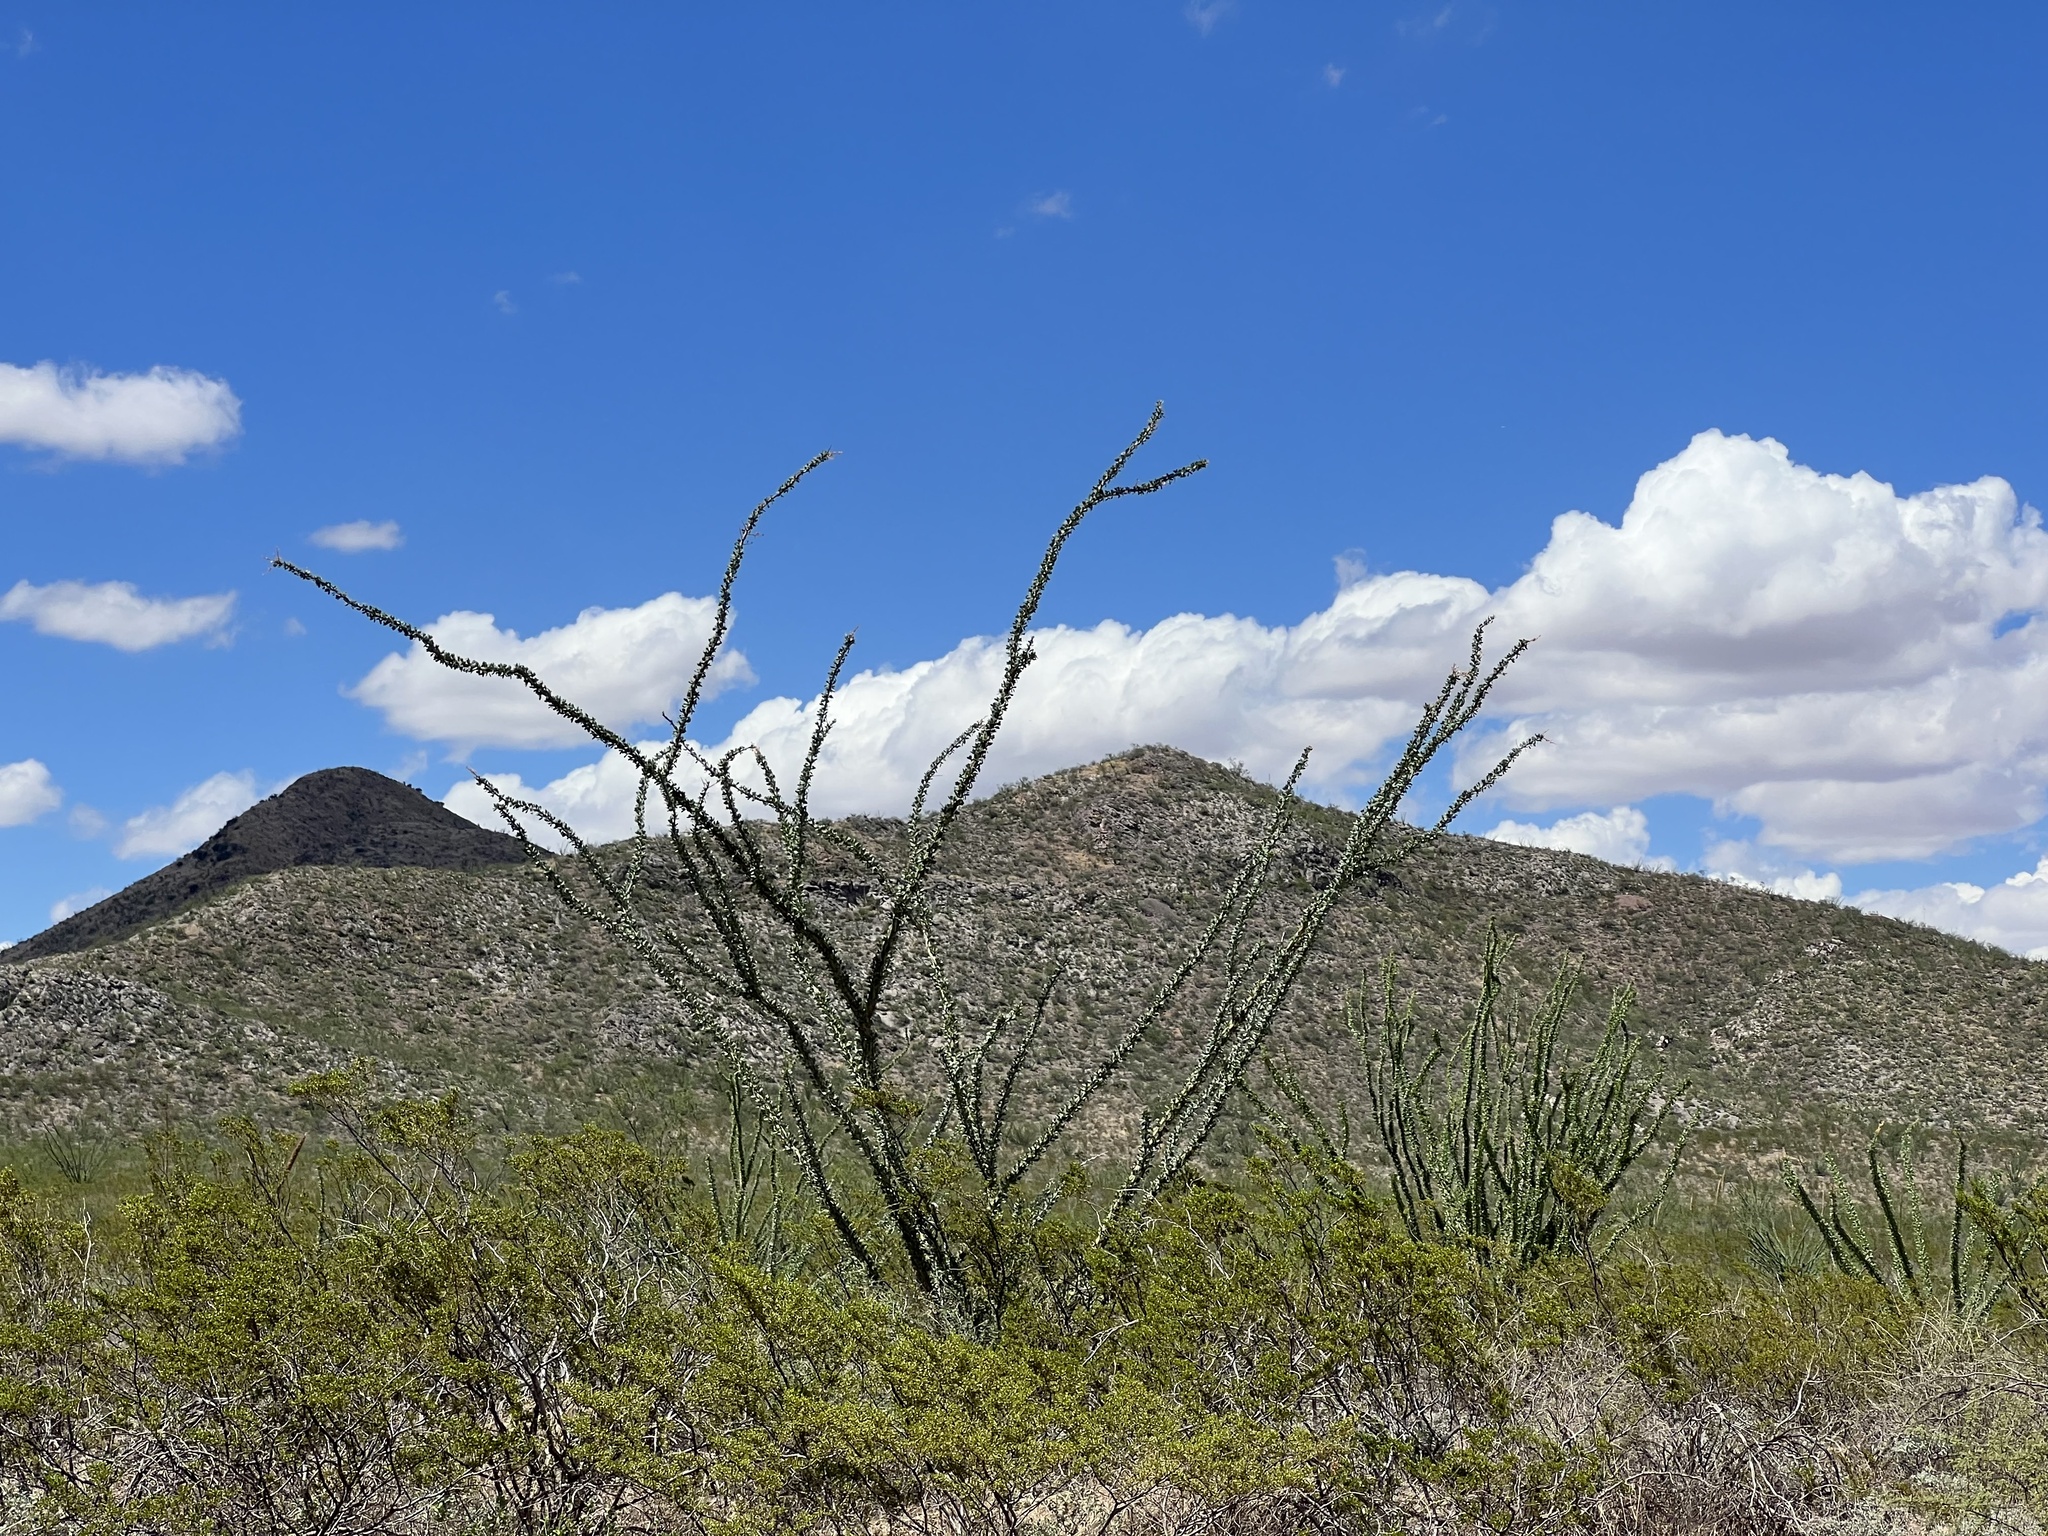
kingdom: Plantae
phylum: Tracheophyta
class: Magnoliopsida
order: Ericales
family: Fouquieriaceae
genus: Fouquieria
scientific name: Fouquieria splendens
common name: Vine-cactus
